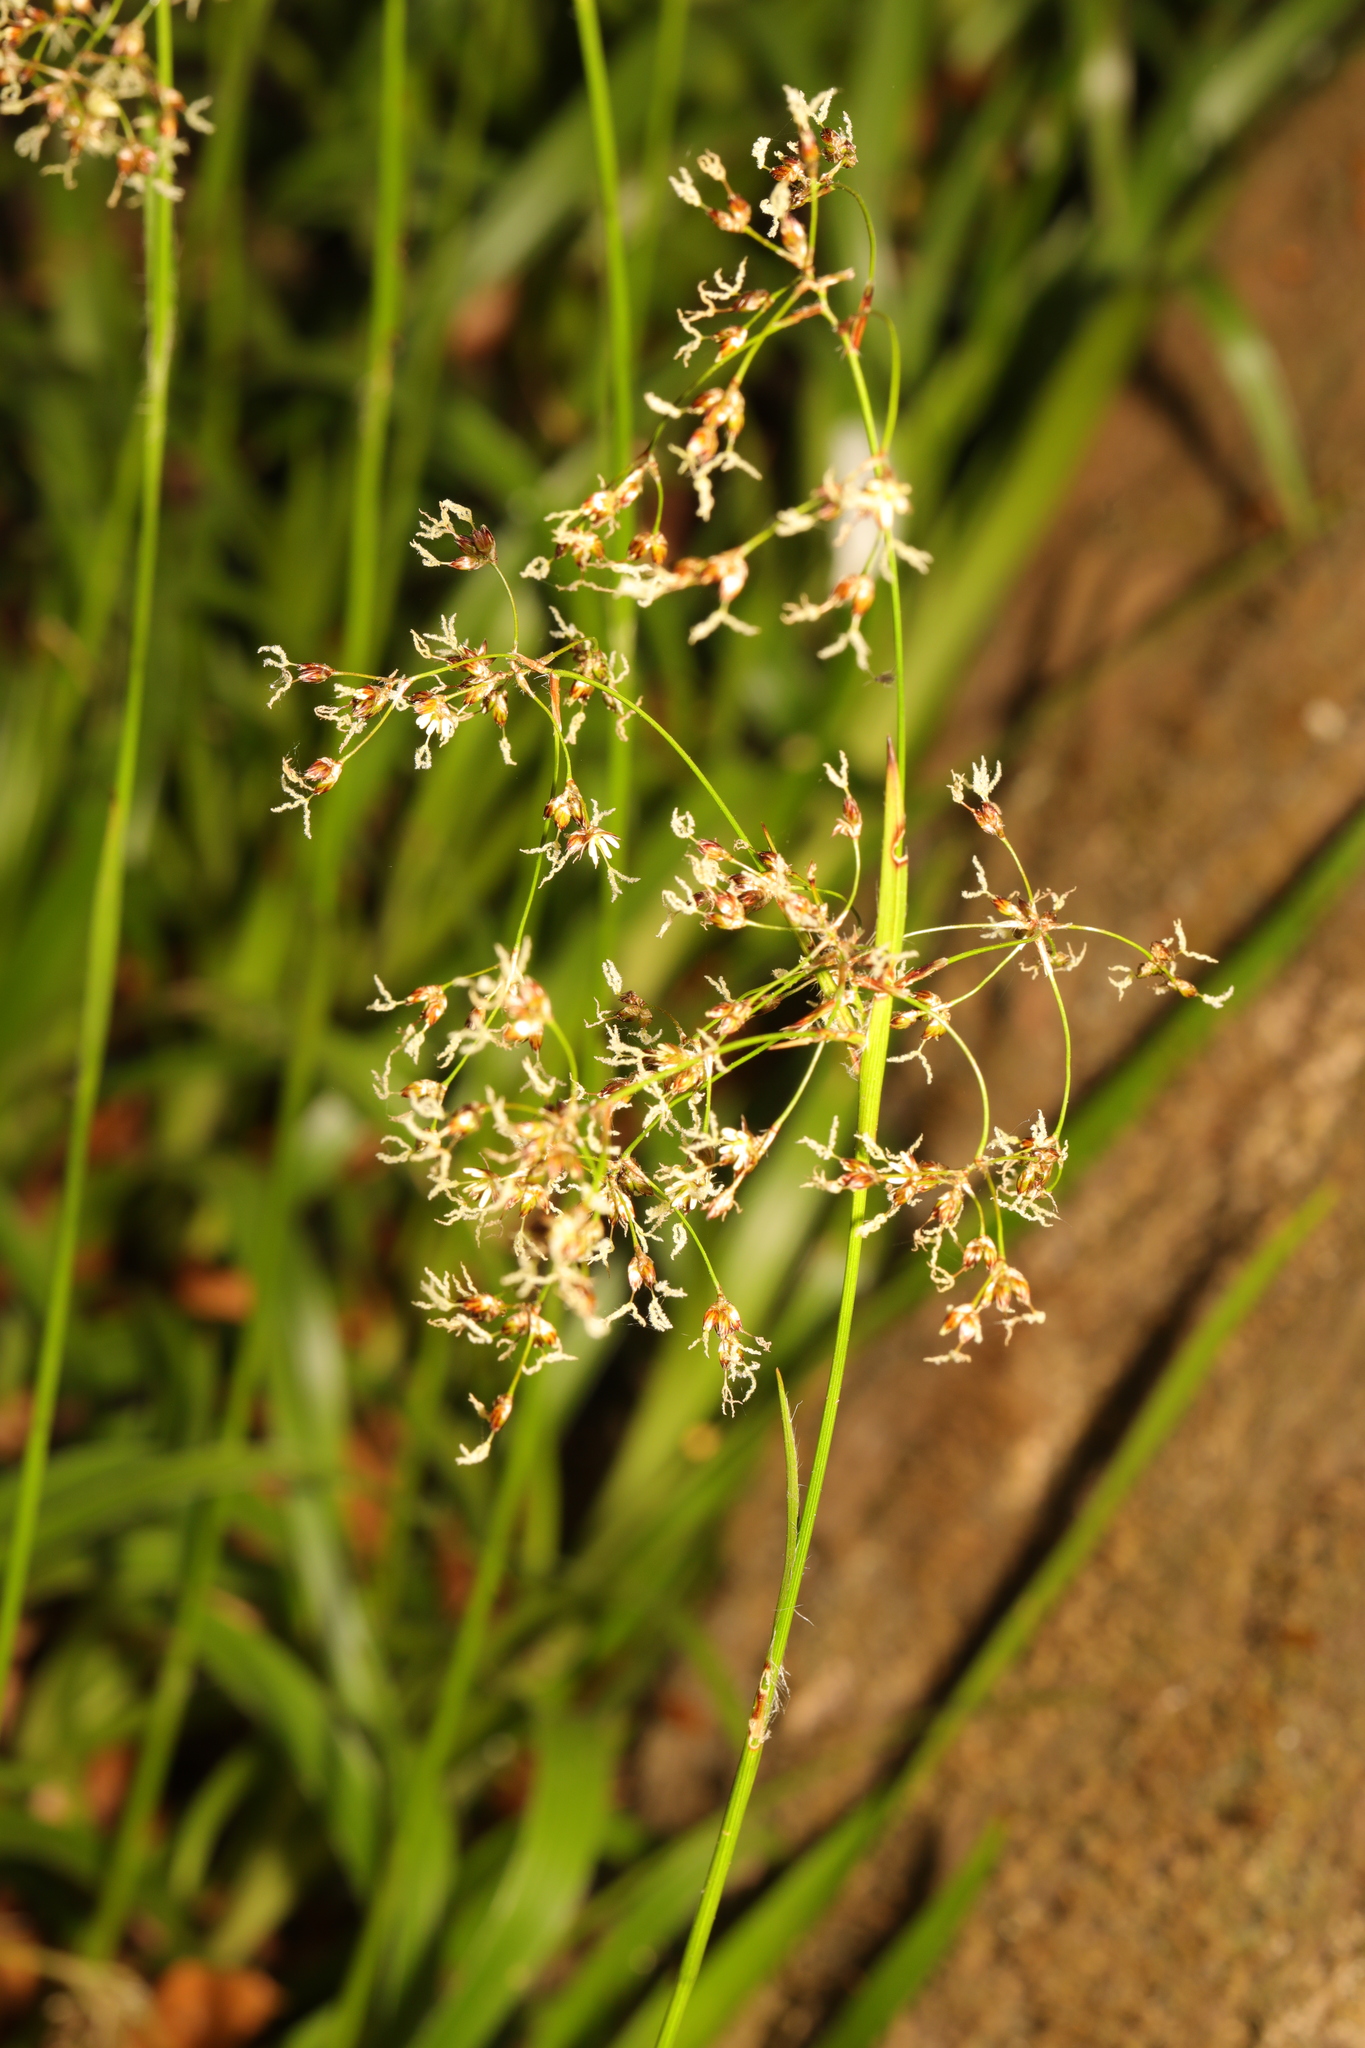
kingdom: Plantae
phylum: Tracheophyta
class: Liliopsida
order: Poales
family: Juncaceae
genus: Luzula
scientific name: Luzula sylvatica
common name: Great wood-rush
